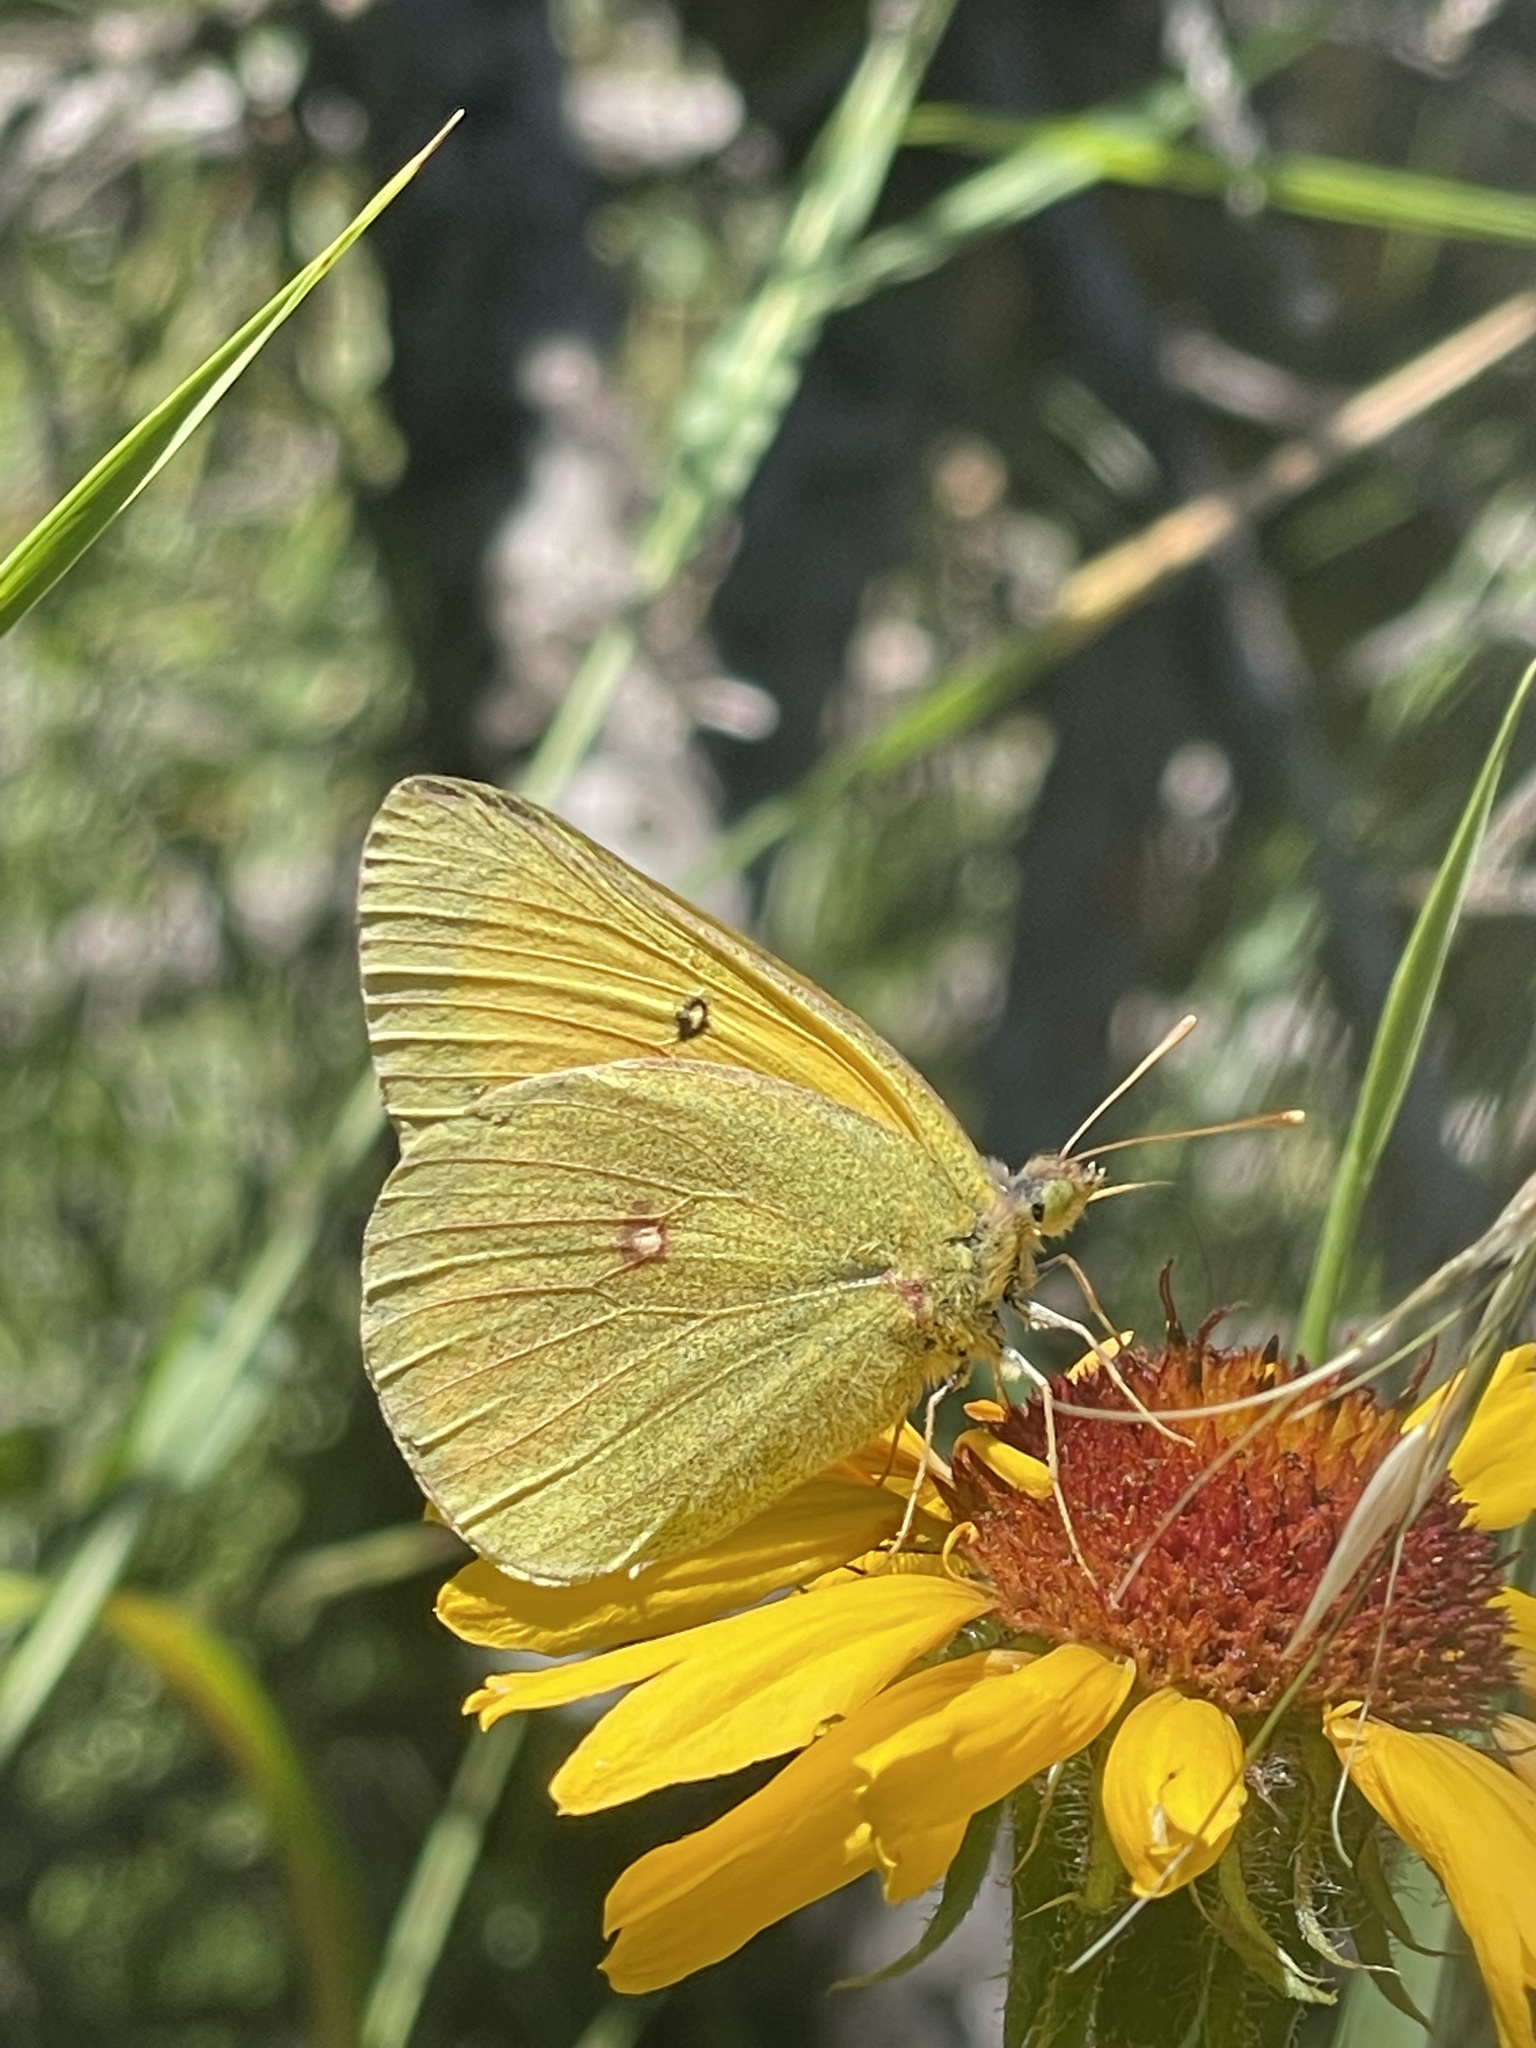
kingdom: Animalia
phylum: Arthropoda
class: Insecta
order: Lepidoptera
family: Pieridae
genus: Colias
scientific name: Colias christina
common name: Christina sulphur
